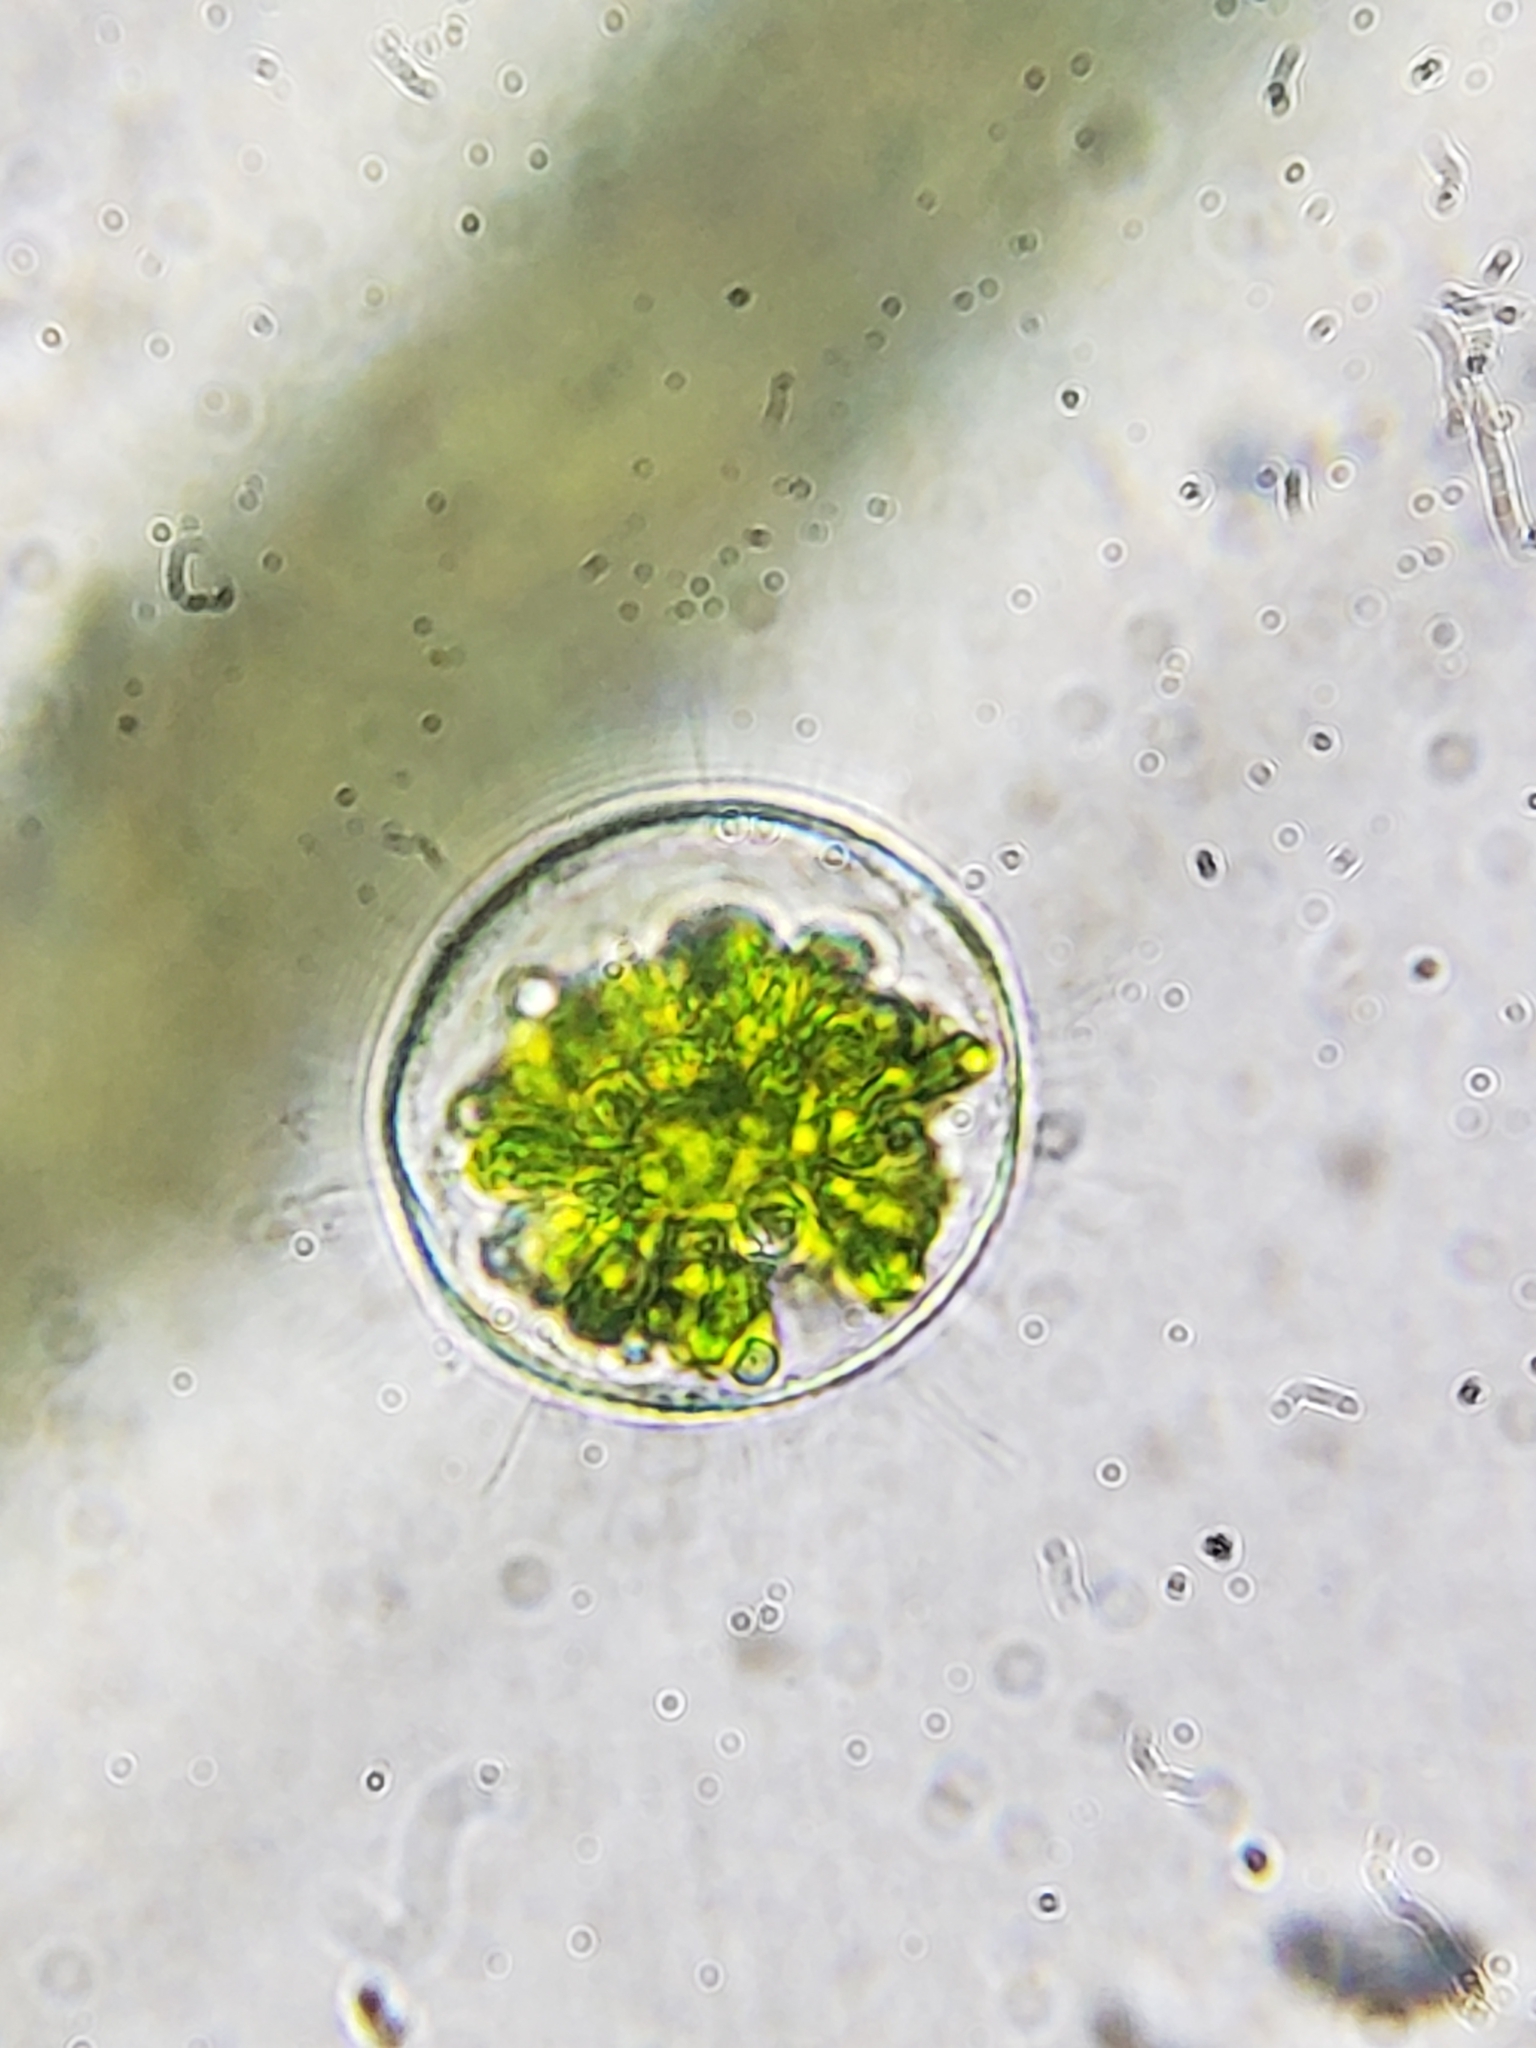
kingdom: Plantae
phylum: Charophyta
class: Conjugatophyceae
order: Desmidiales
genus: Hyalotheca
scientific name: Hyalotheca dissiliens
